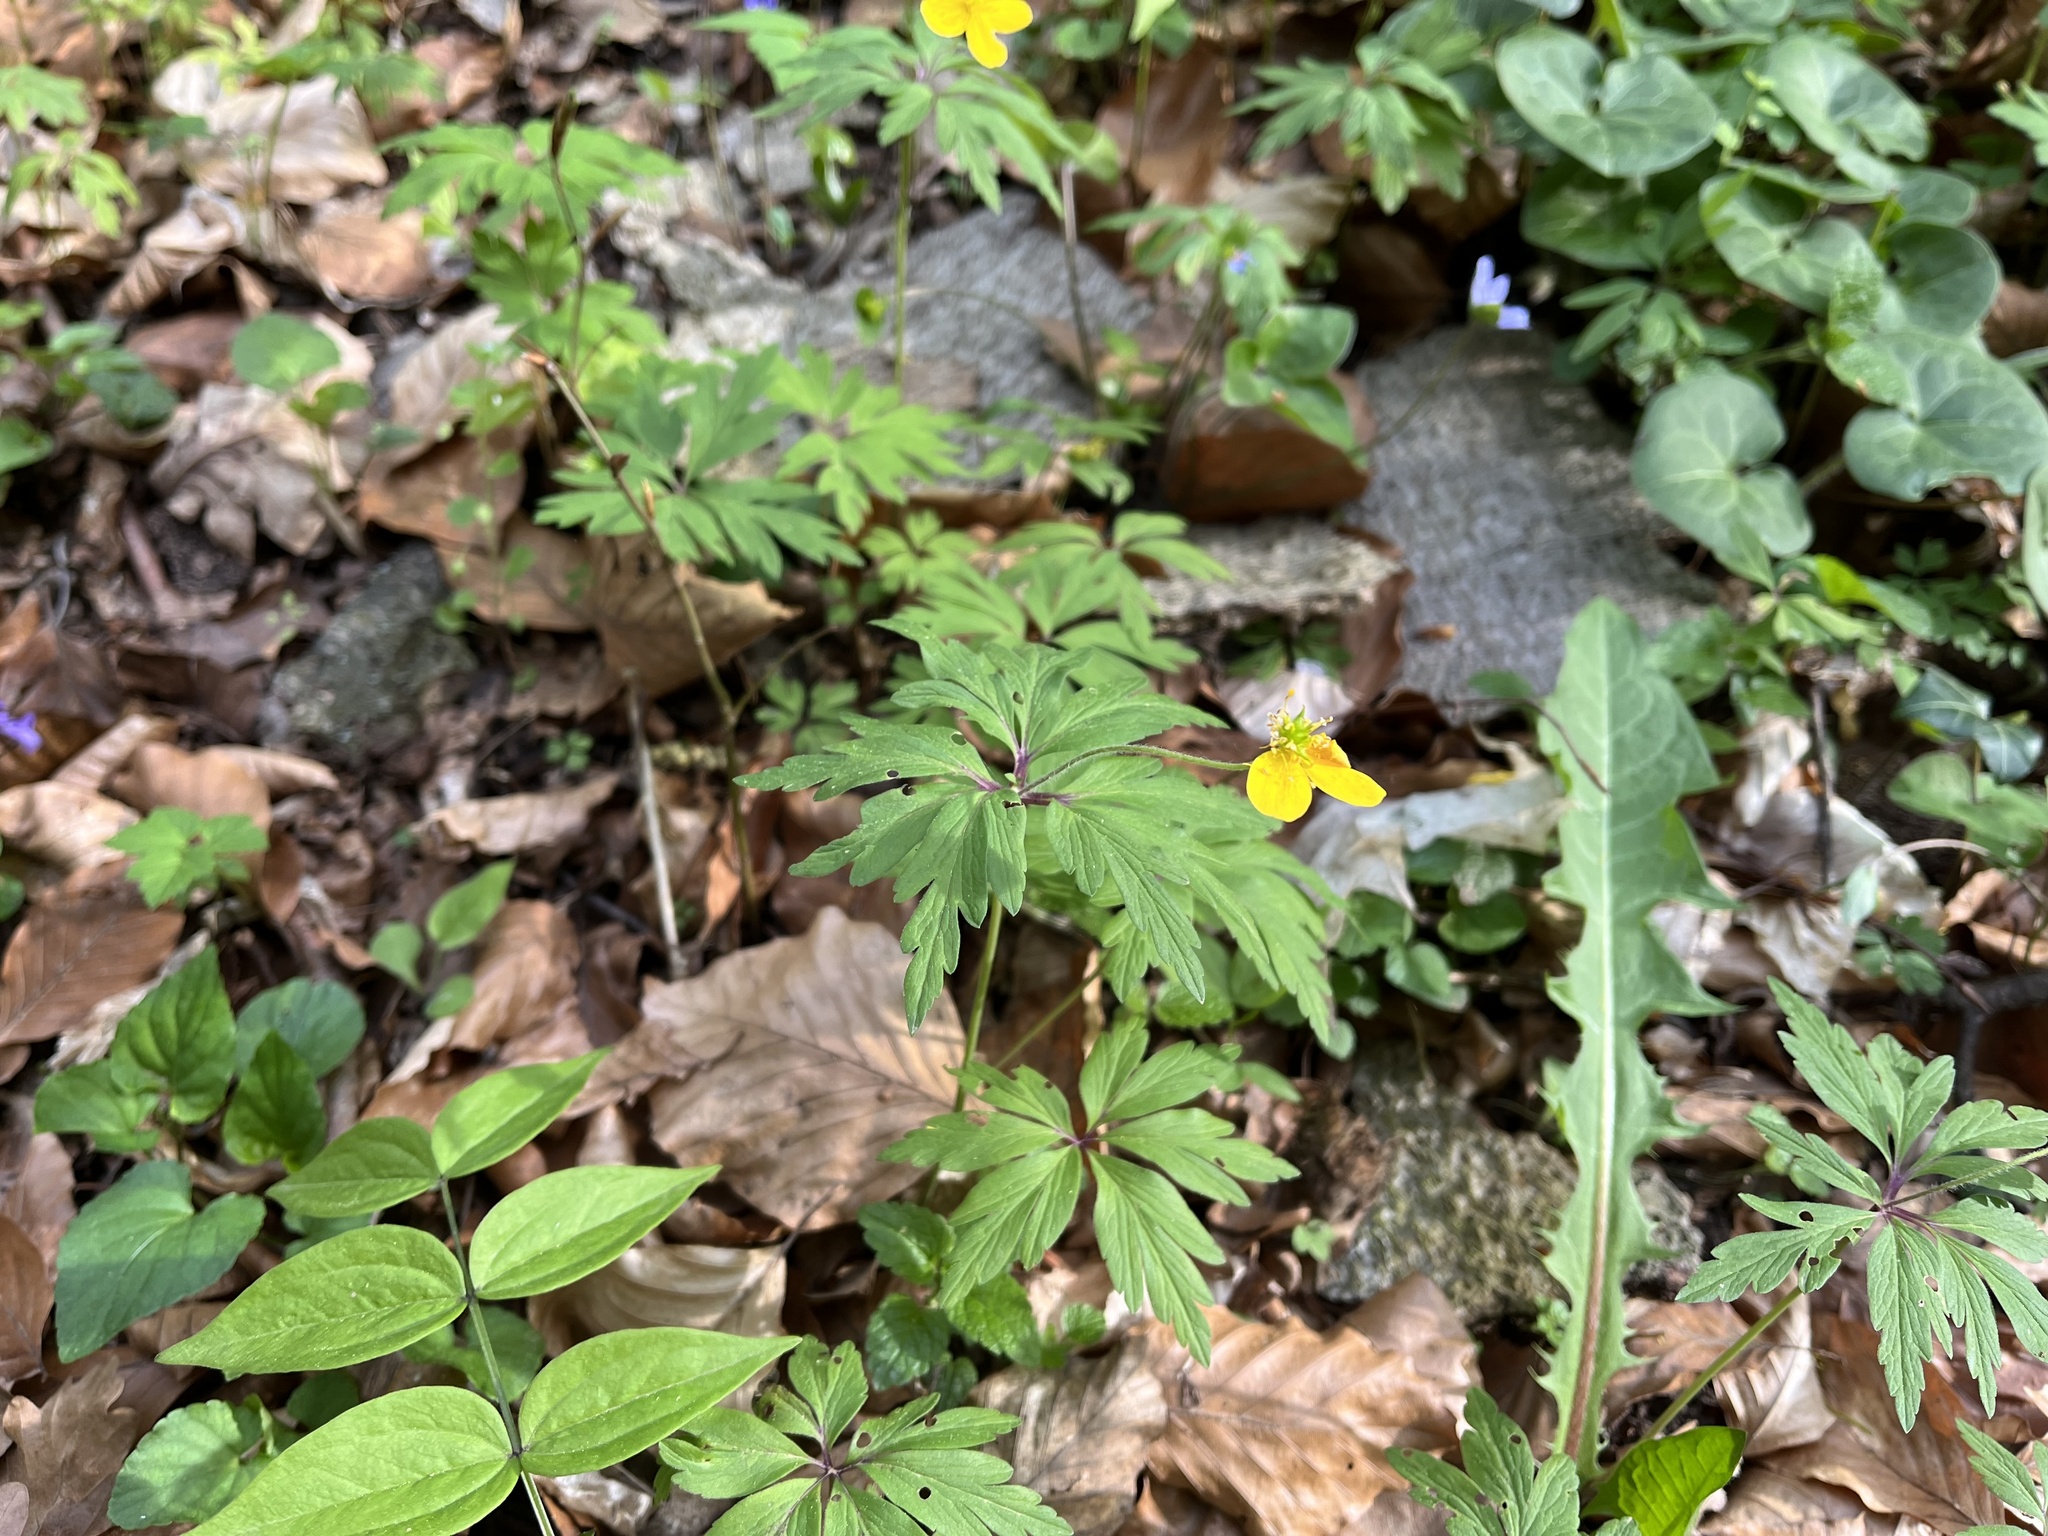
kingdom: Plantae
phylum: Tracheophyta
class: Magnoliopsida
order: Ranunculales
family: Ranunculaceae
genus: Anemone
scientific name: Anemone ranunculoides
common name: Yellow anemone
